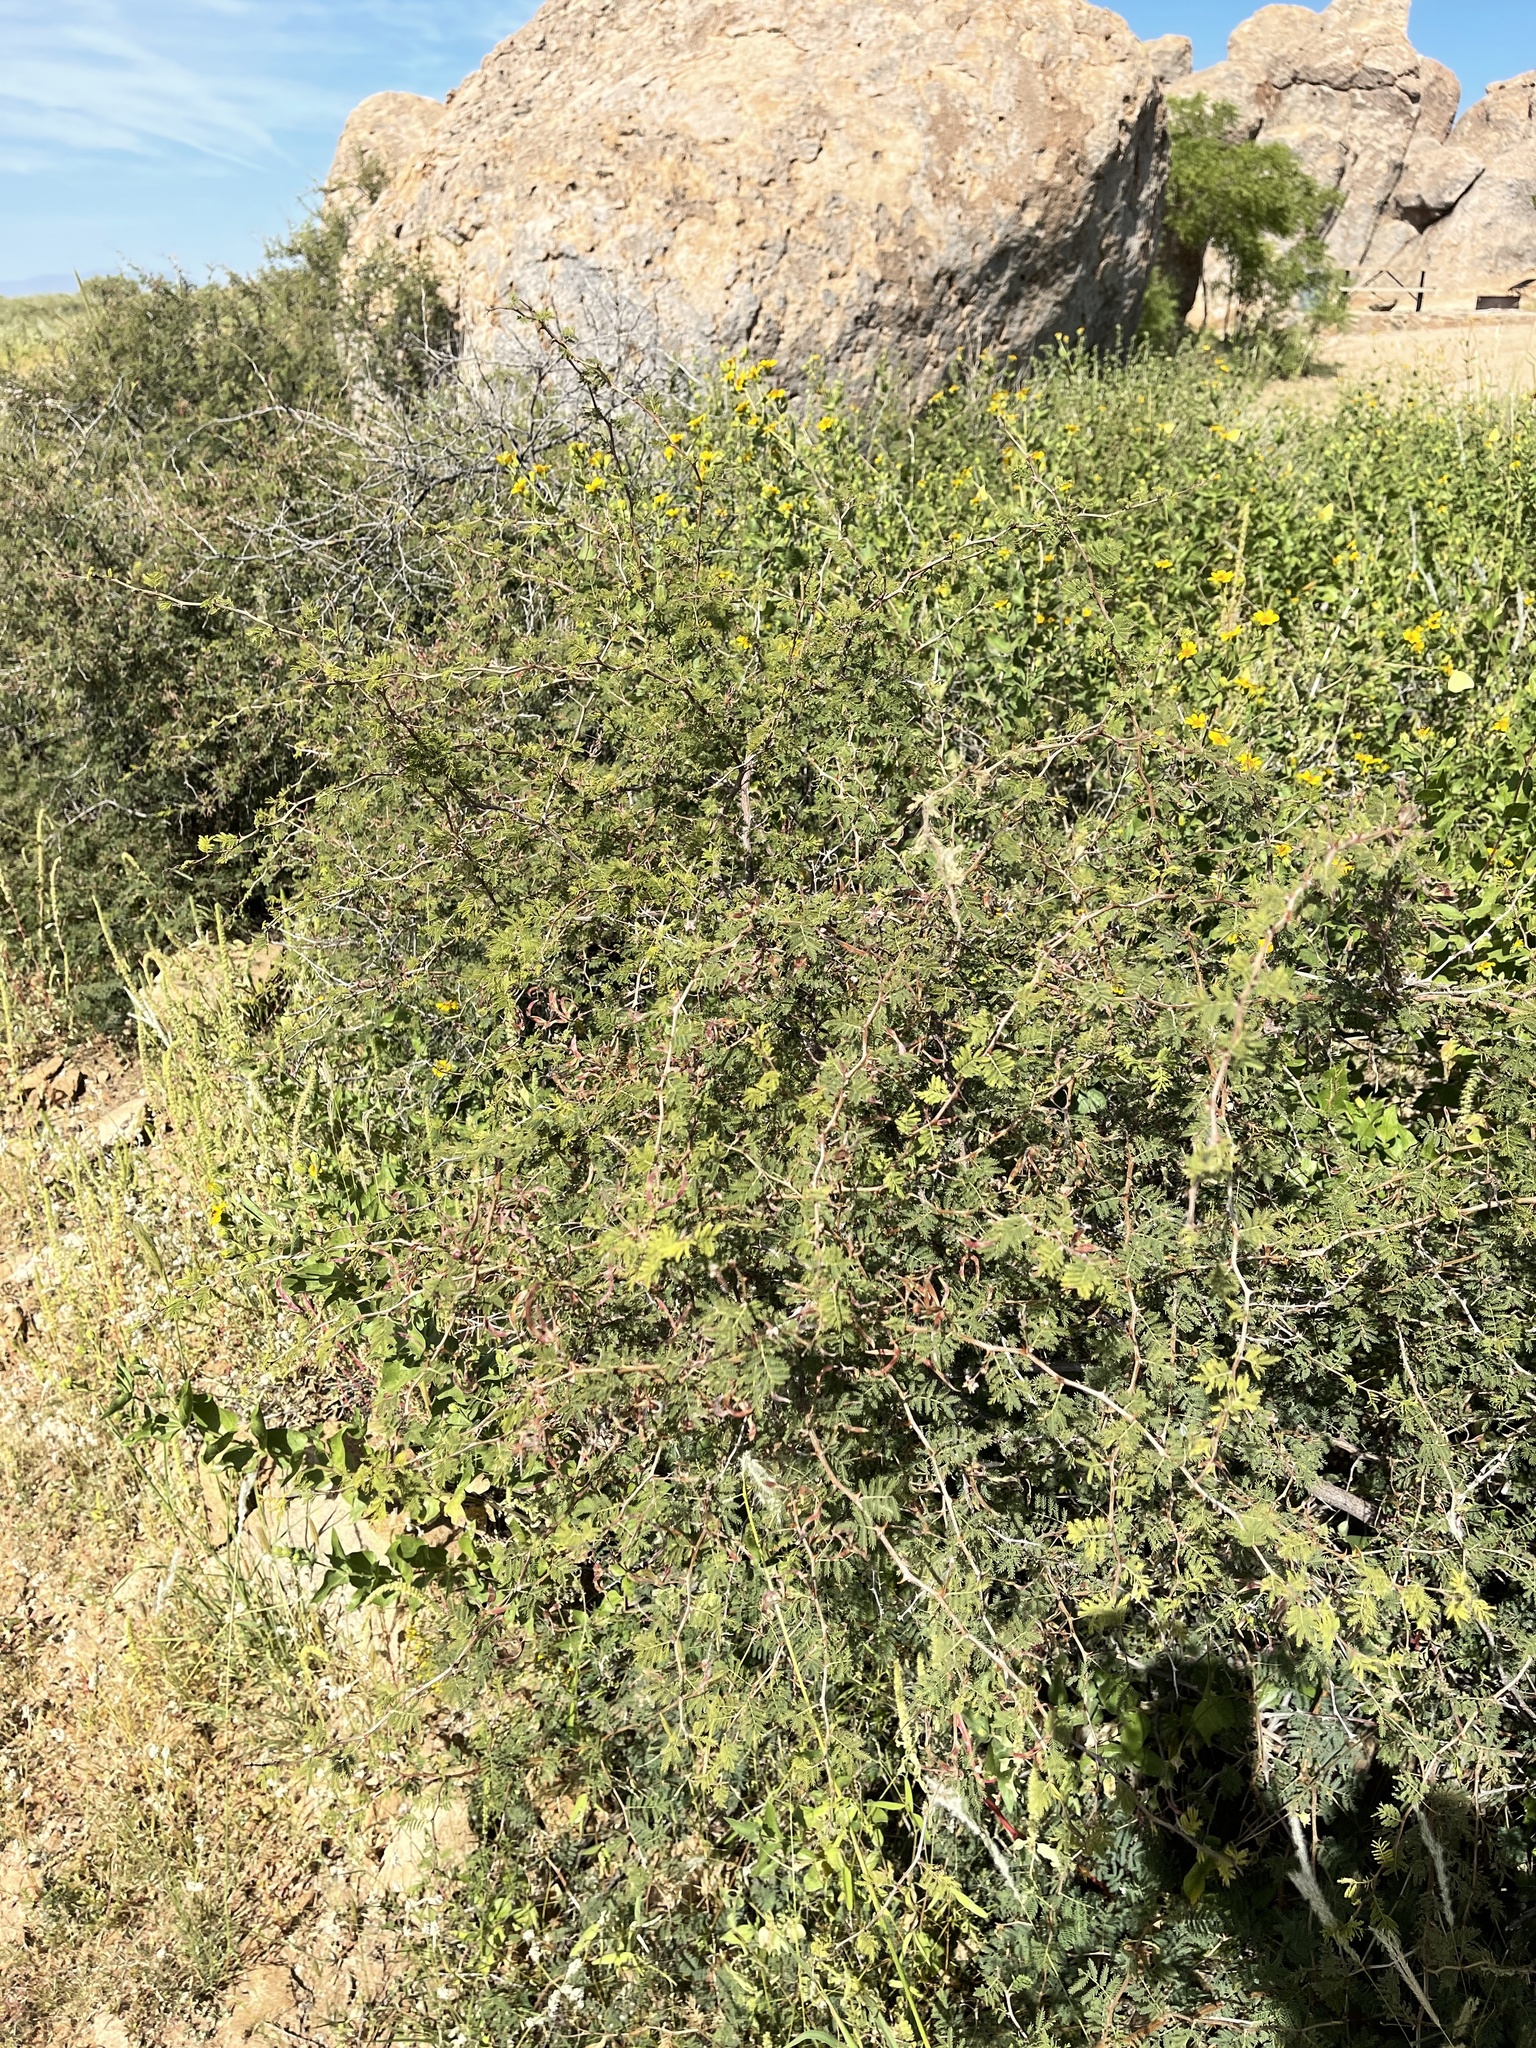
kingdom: Plantae
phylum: Tracheophyta
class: Magnoliopsida
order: Fabales
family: Fabaceae
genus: Mimosa
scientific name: Mimosa aculeaticarpa
